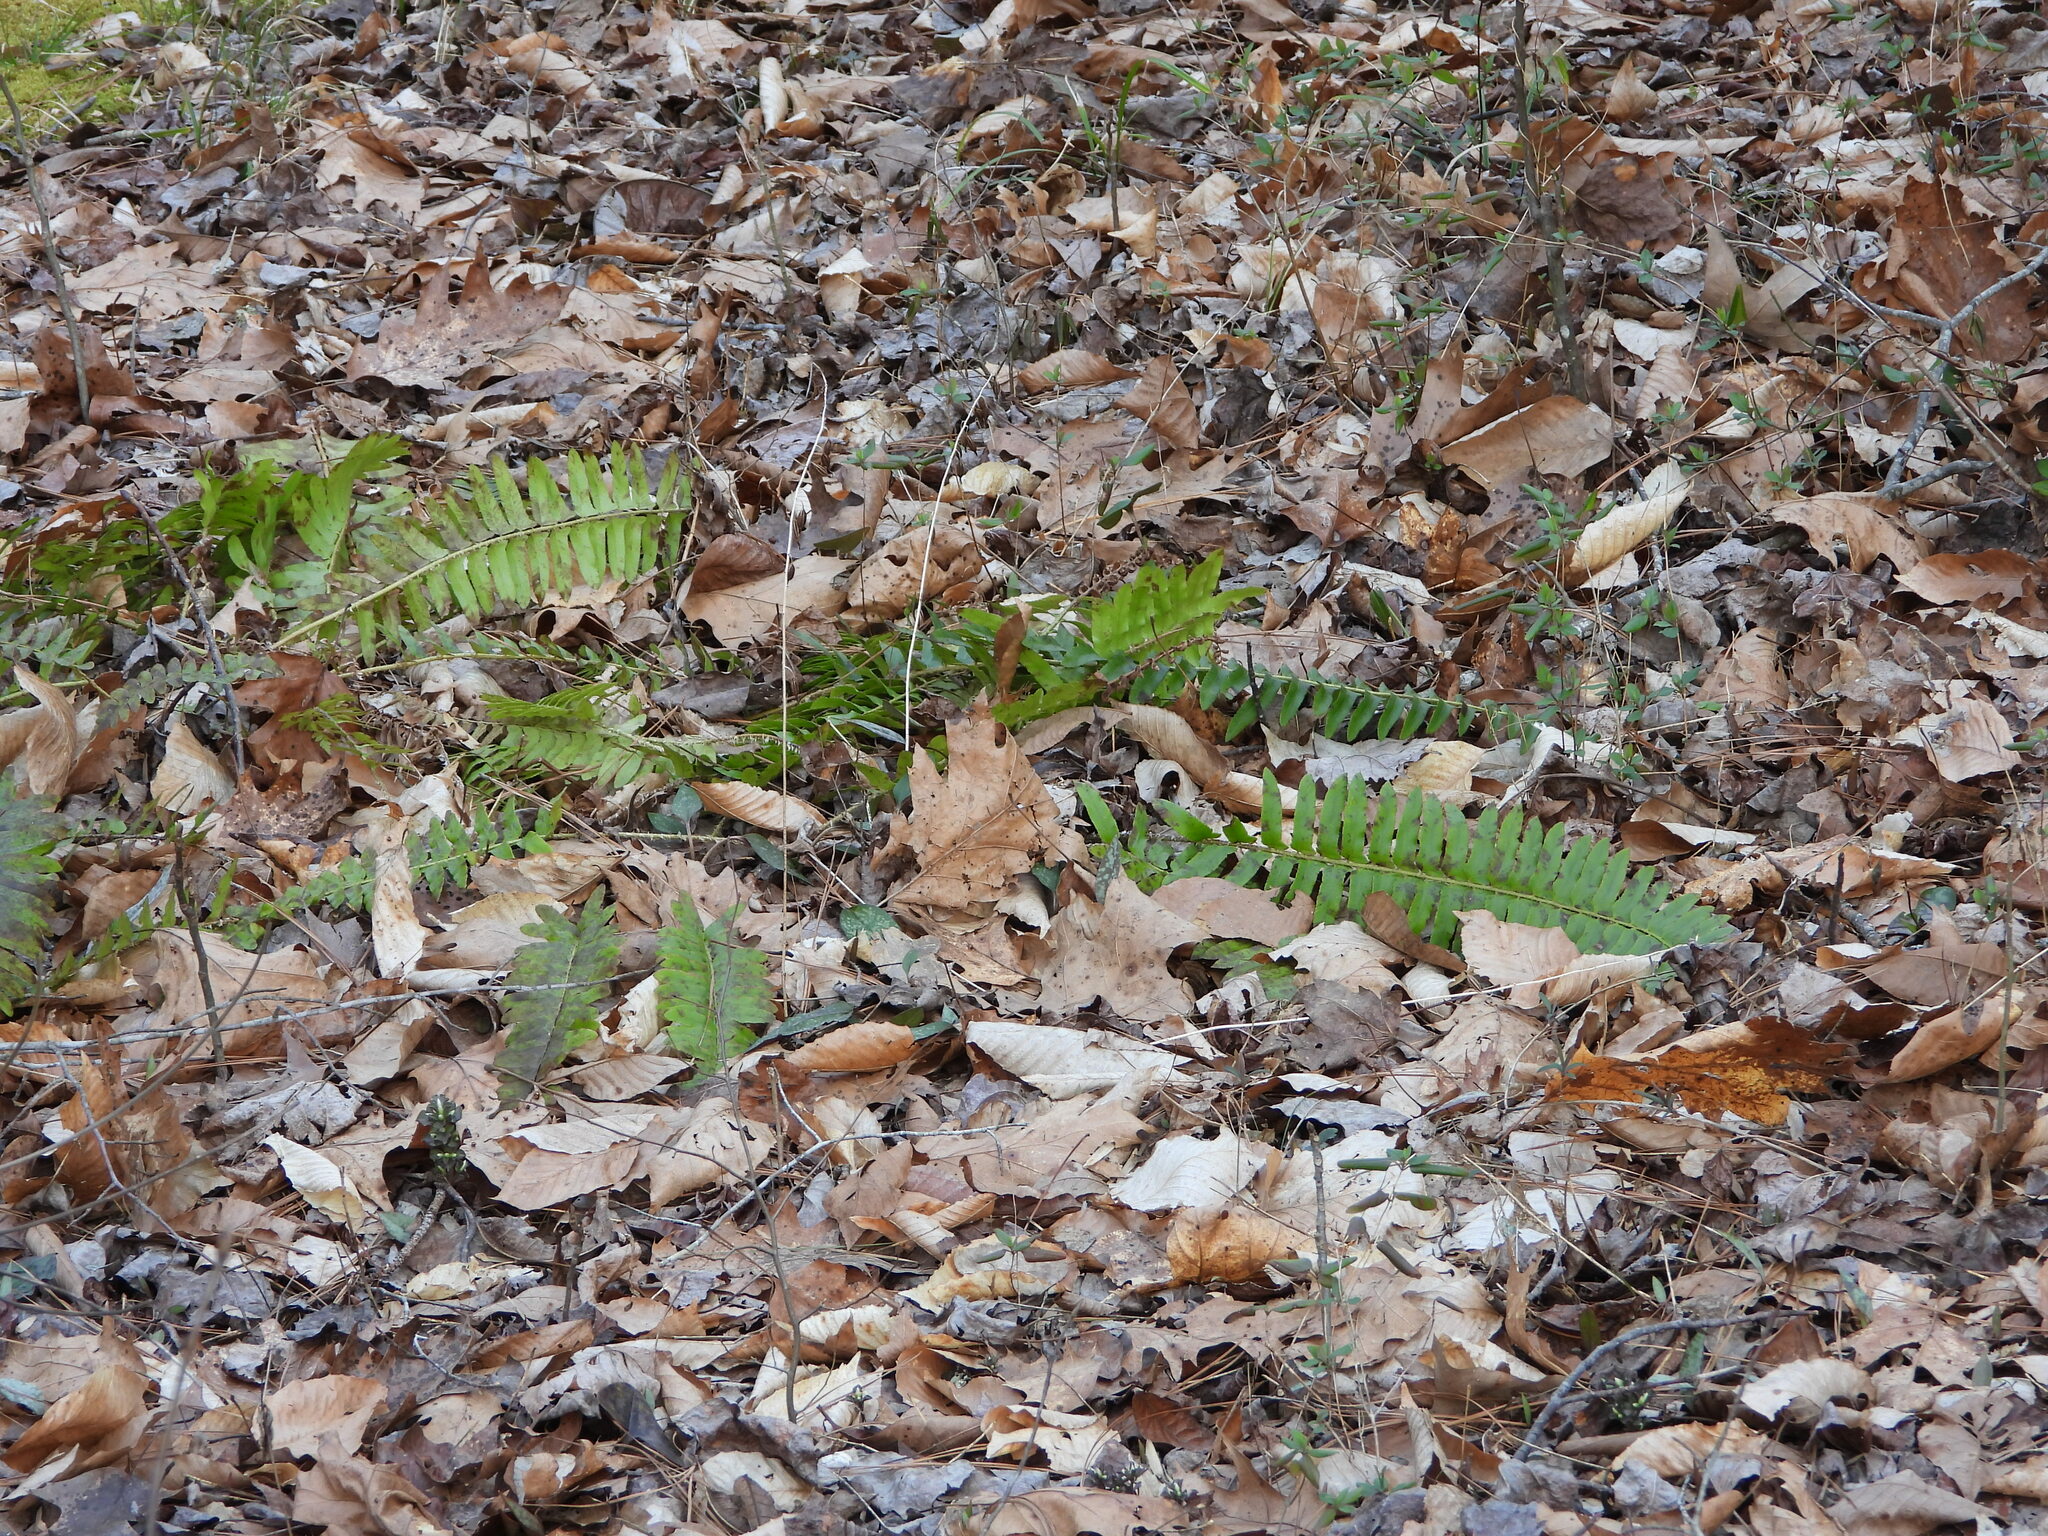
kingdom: Plantae
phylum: Tracheophyta
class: Polypodiopsida
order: Polypodiales
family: Dryopteridaceae
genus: Polystichum
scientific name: Polystichum acrostichoides
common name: Christmas fern
